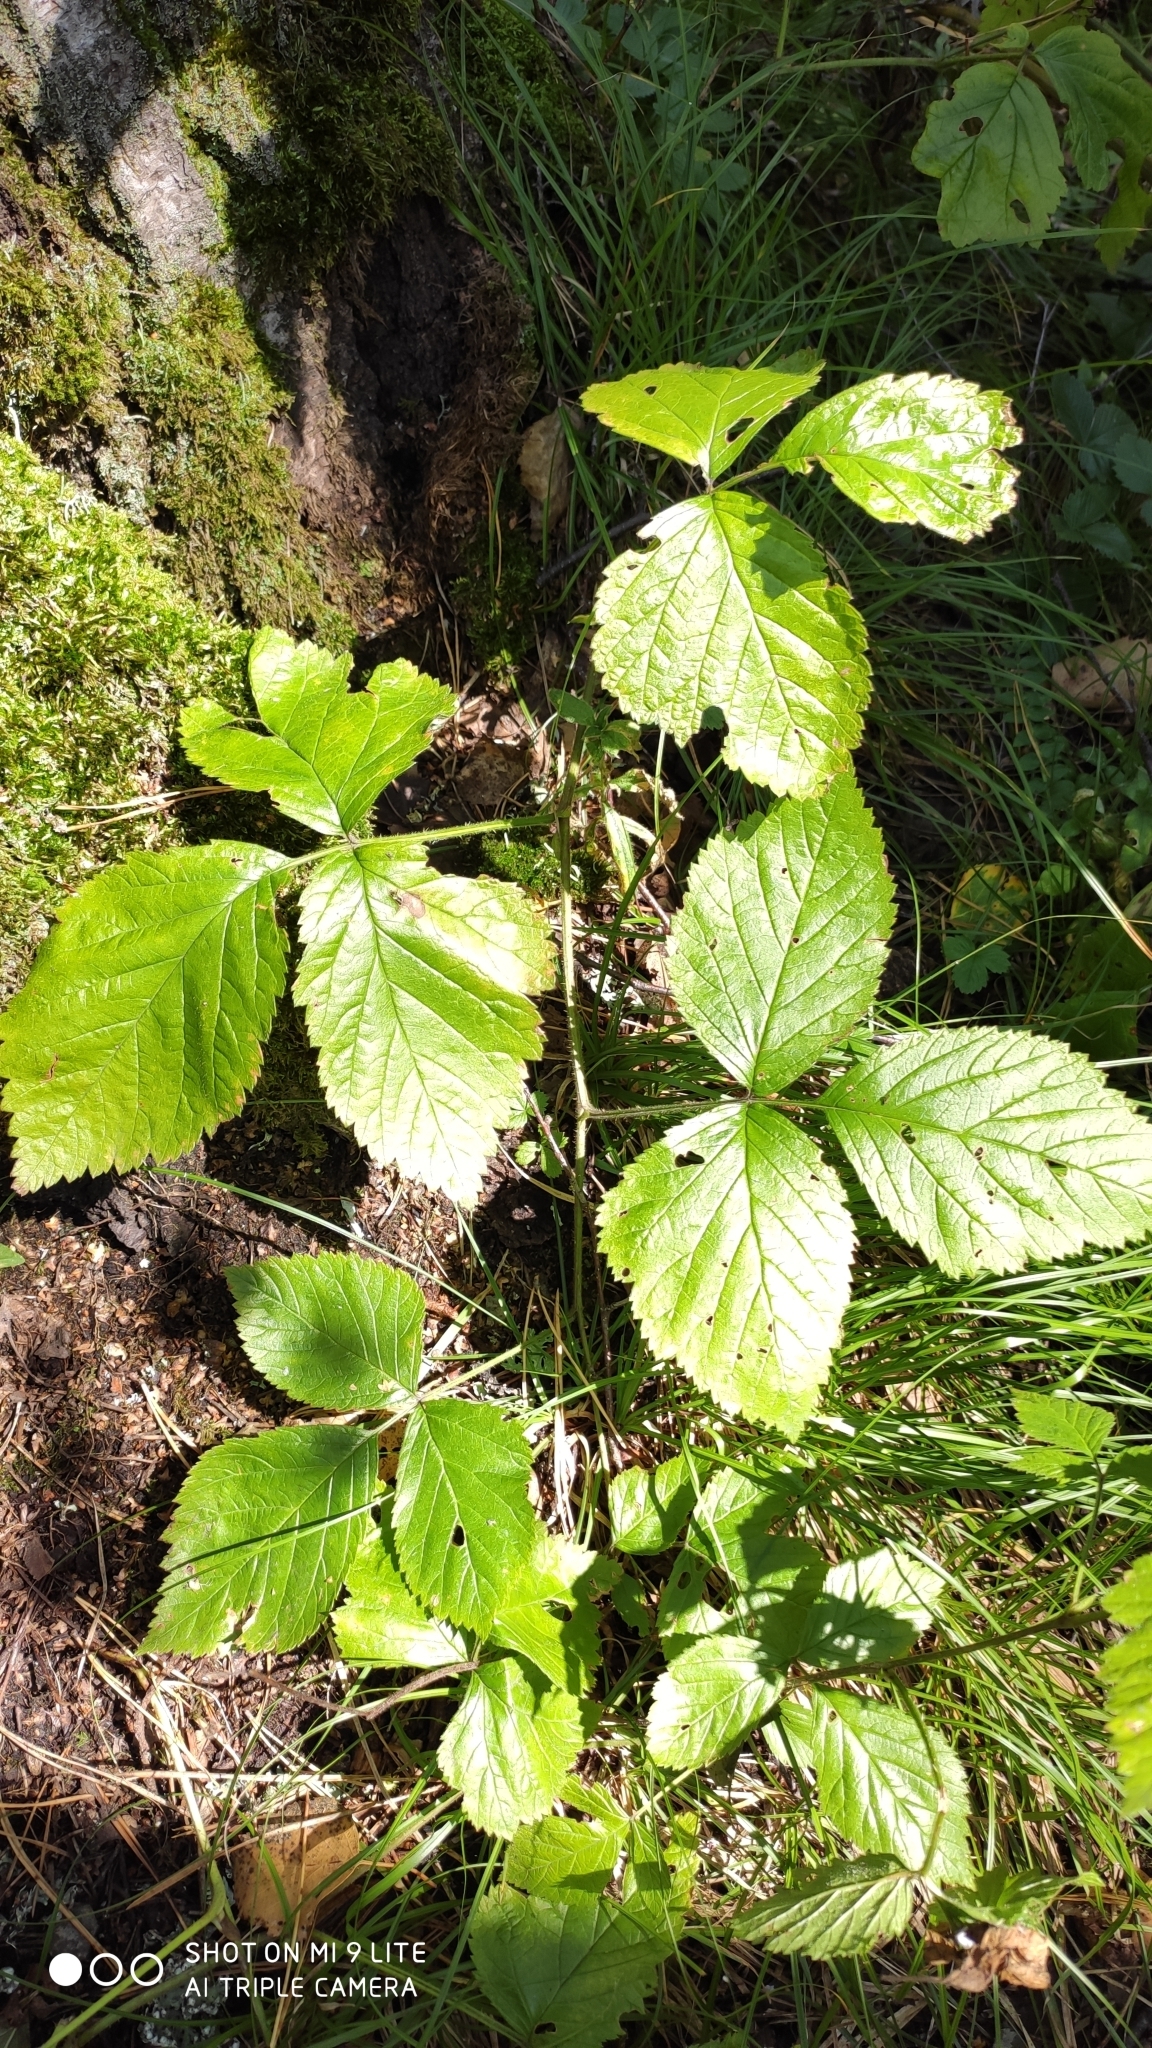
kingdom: Plantae
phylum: Tracheophyta
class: Magnoliopsida
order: Rosales
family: Rosaceae
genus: Rubus
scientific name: Rubus saxatilis
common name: Stone bramble
